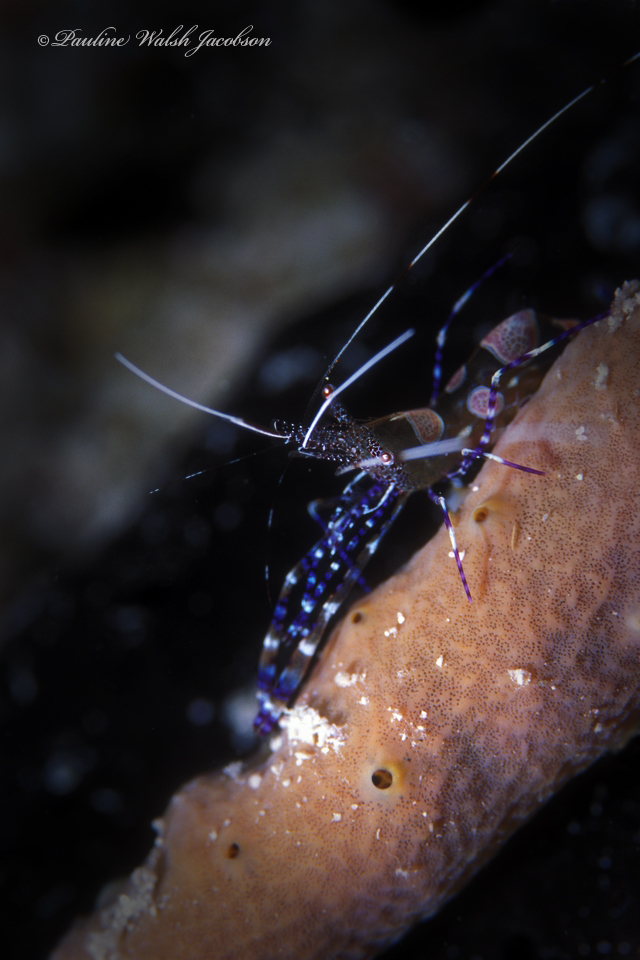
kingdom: Animalia
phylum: Arthropoda
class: Malacostraca
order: Decapoda
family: Palaemonidae
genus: Periclimenes
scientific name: Periclimenes yucatanicus
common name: Spotted cleaning shrimp
